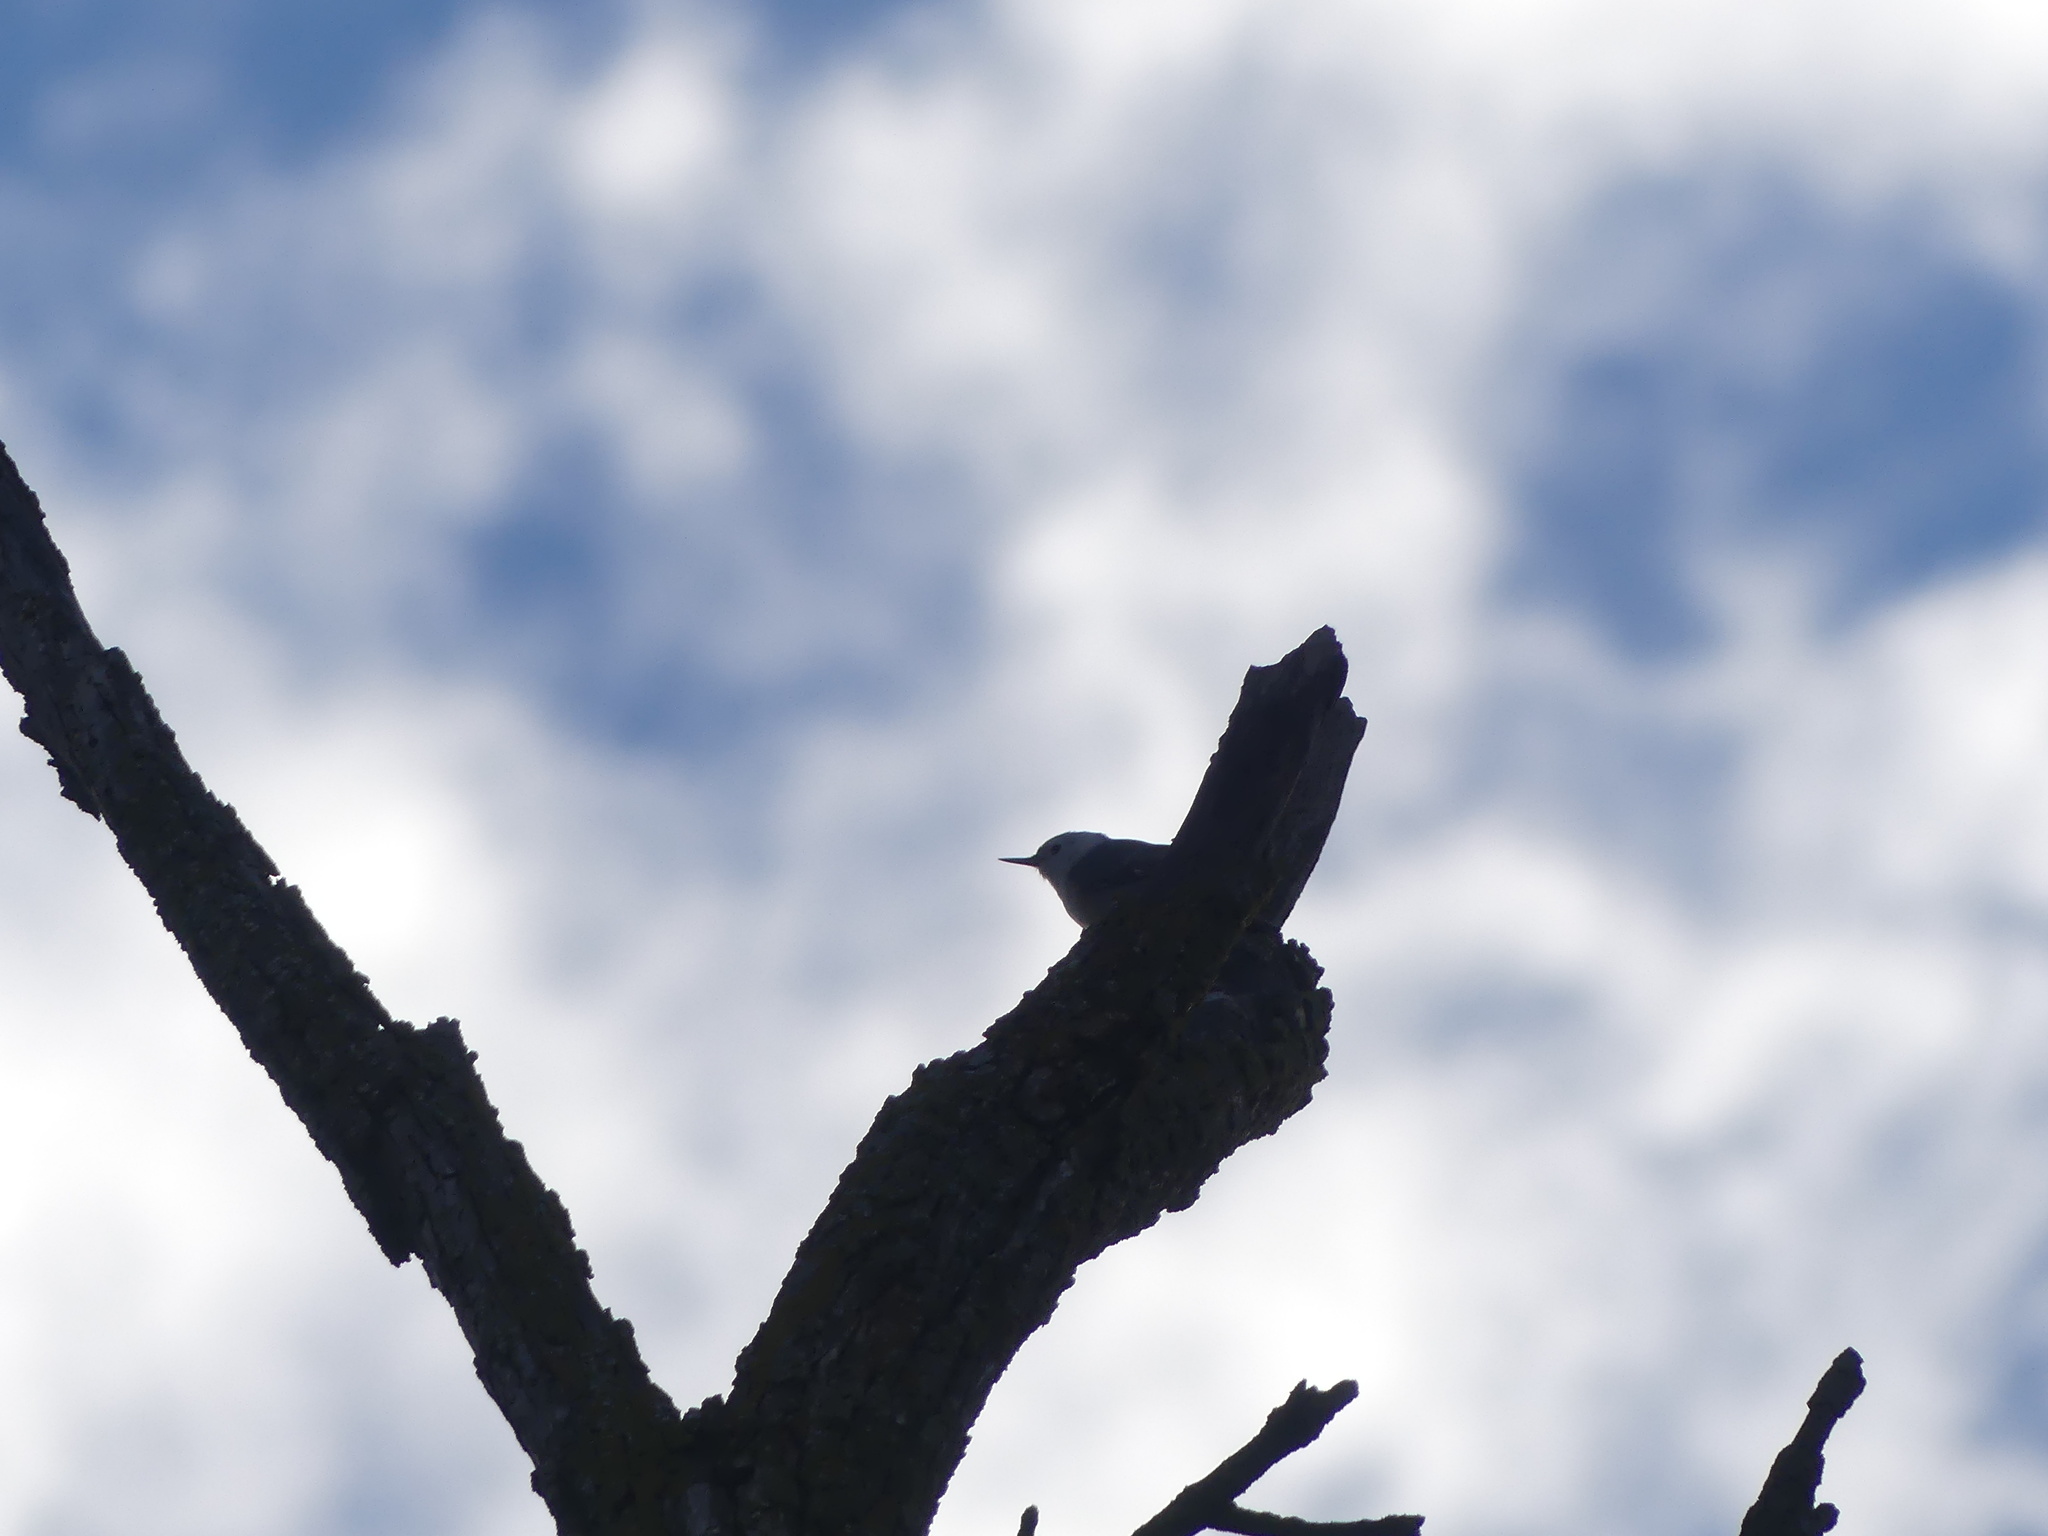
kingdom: Animalia
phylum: Chordata
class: Aves
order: Passeriformes
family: Sittidae
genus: Sitta
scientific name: Sitta carolinensis
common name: White-breasted nuthatch
